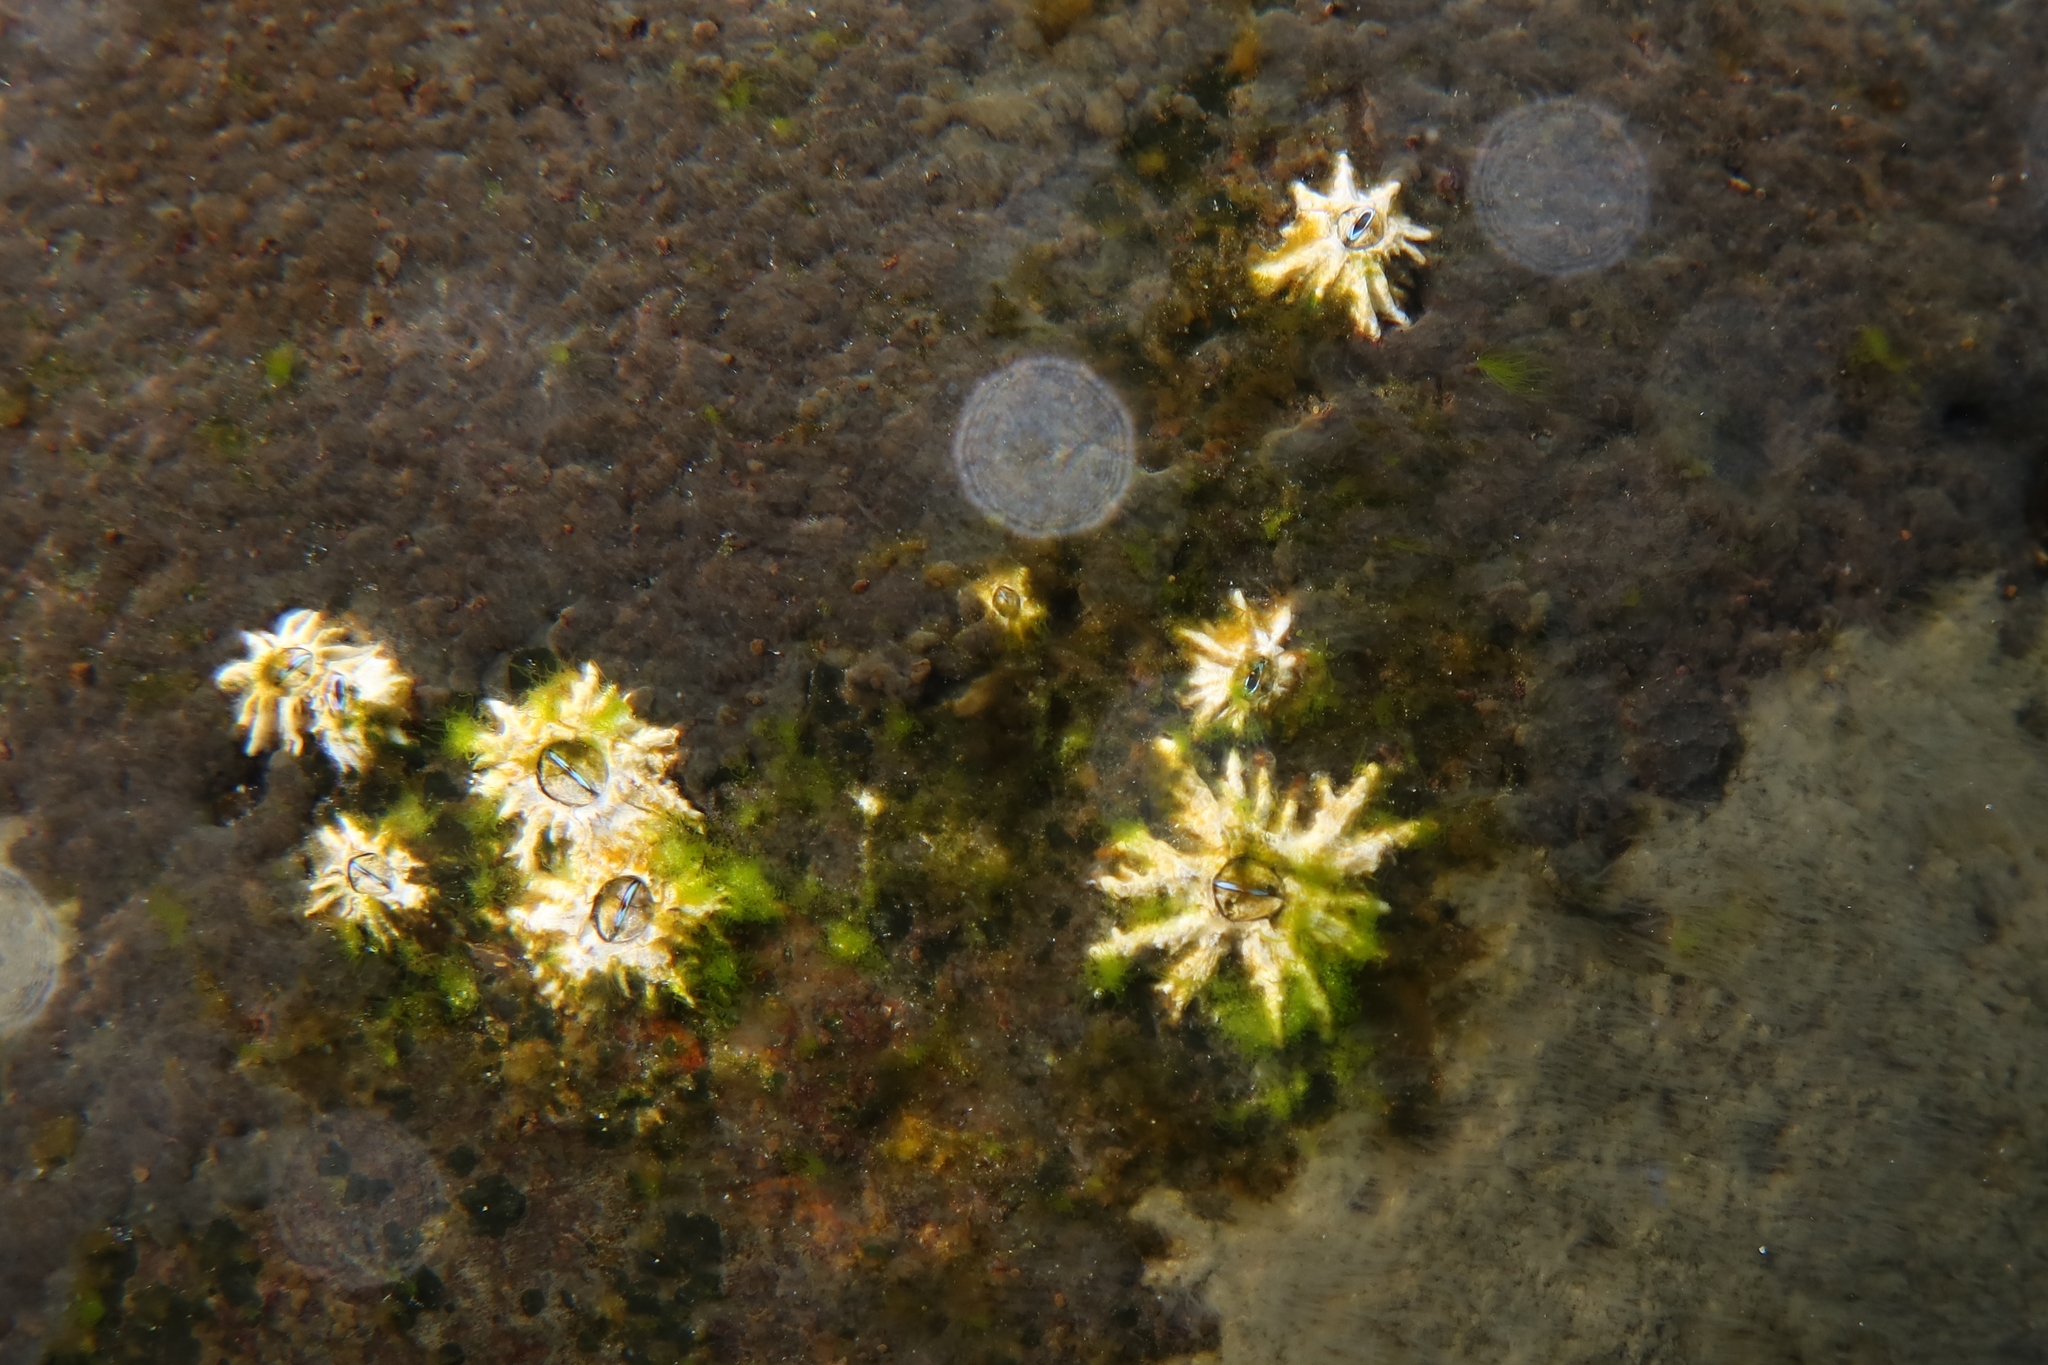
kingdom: Animalia
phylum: Arthropoda
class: Maxillopoda
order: Sessilia
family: Chthamalidae
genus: Chthamalus
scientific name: Chthamalus stellatus
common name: Poli's stellate barnacle
